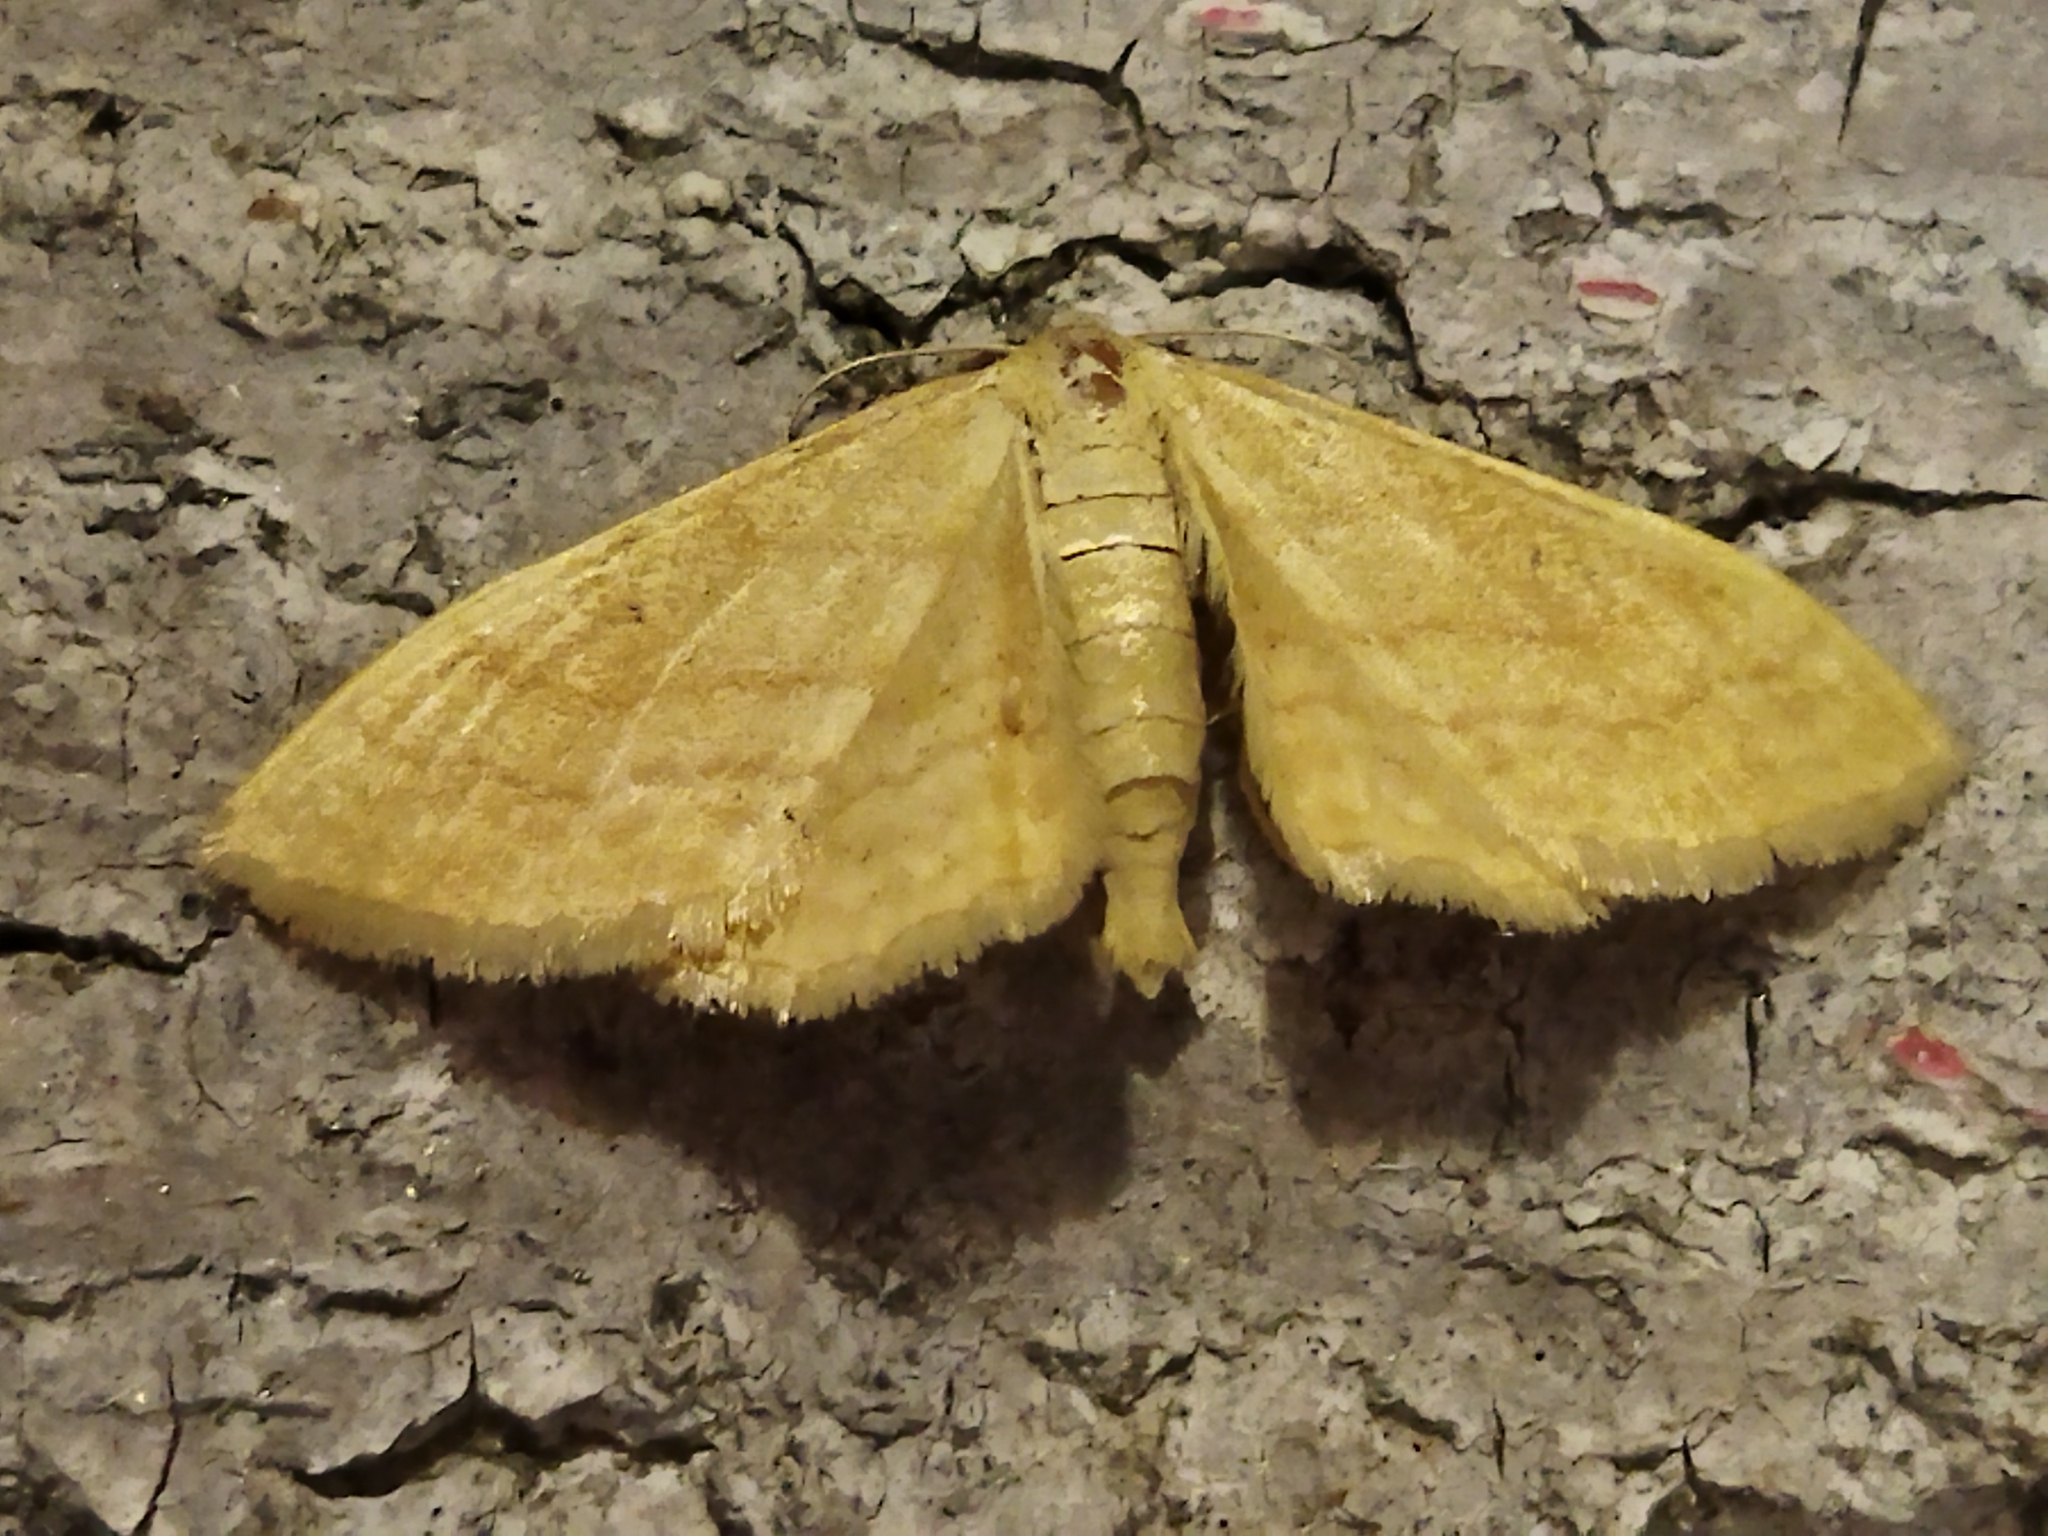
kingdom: Animalia
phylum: Arthropoda
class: Insecta
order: Lepidoptera
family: Geometridae
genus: Idaea
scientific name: Idaea rufaria
